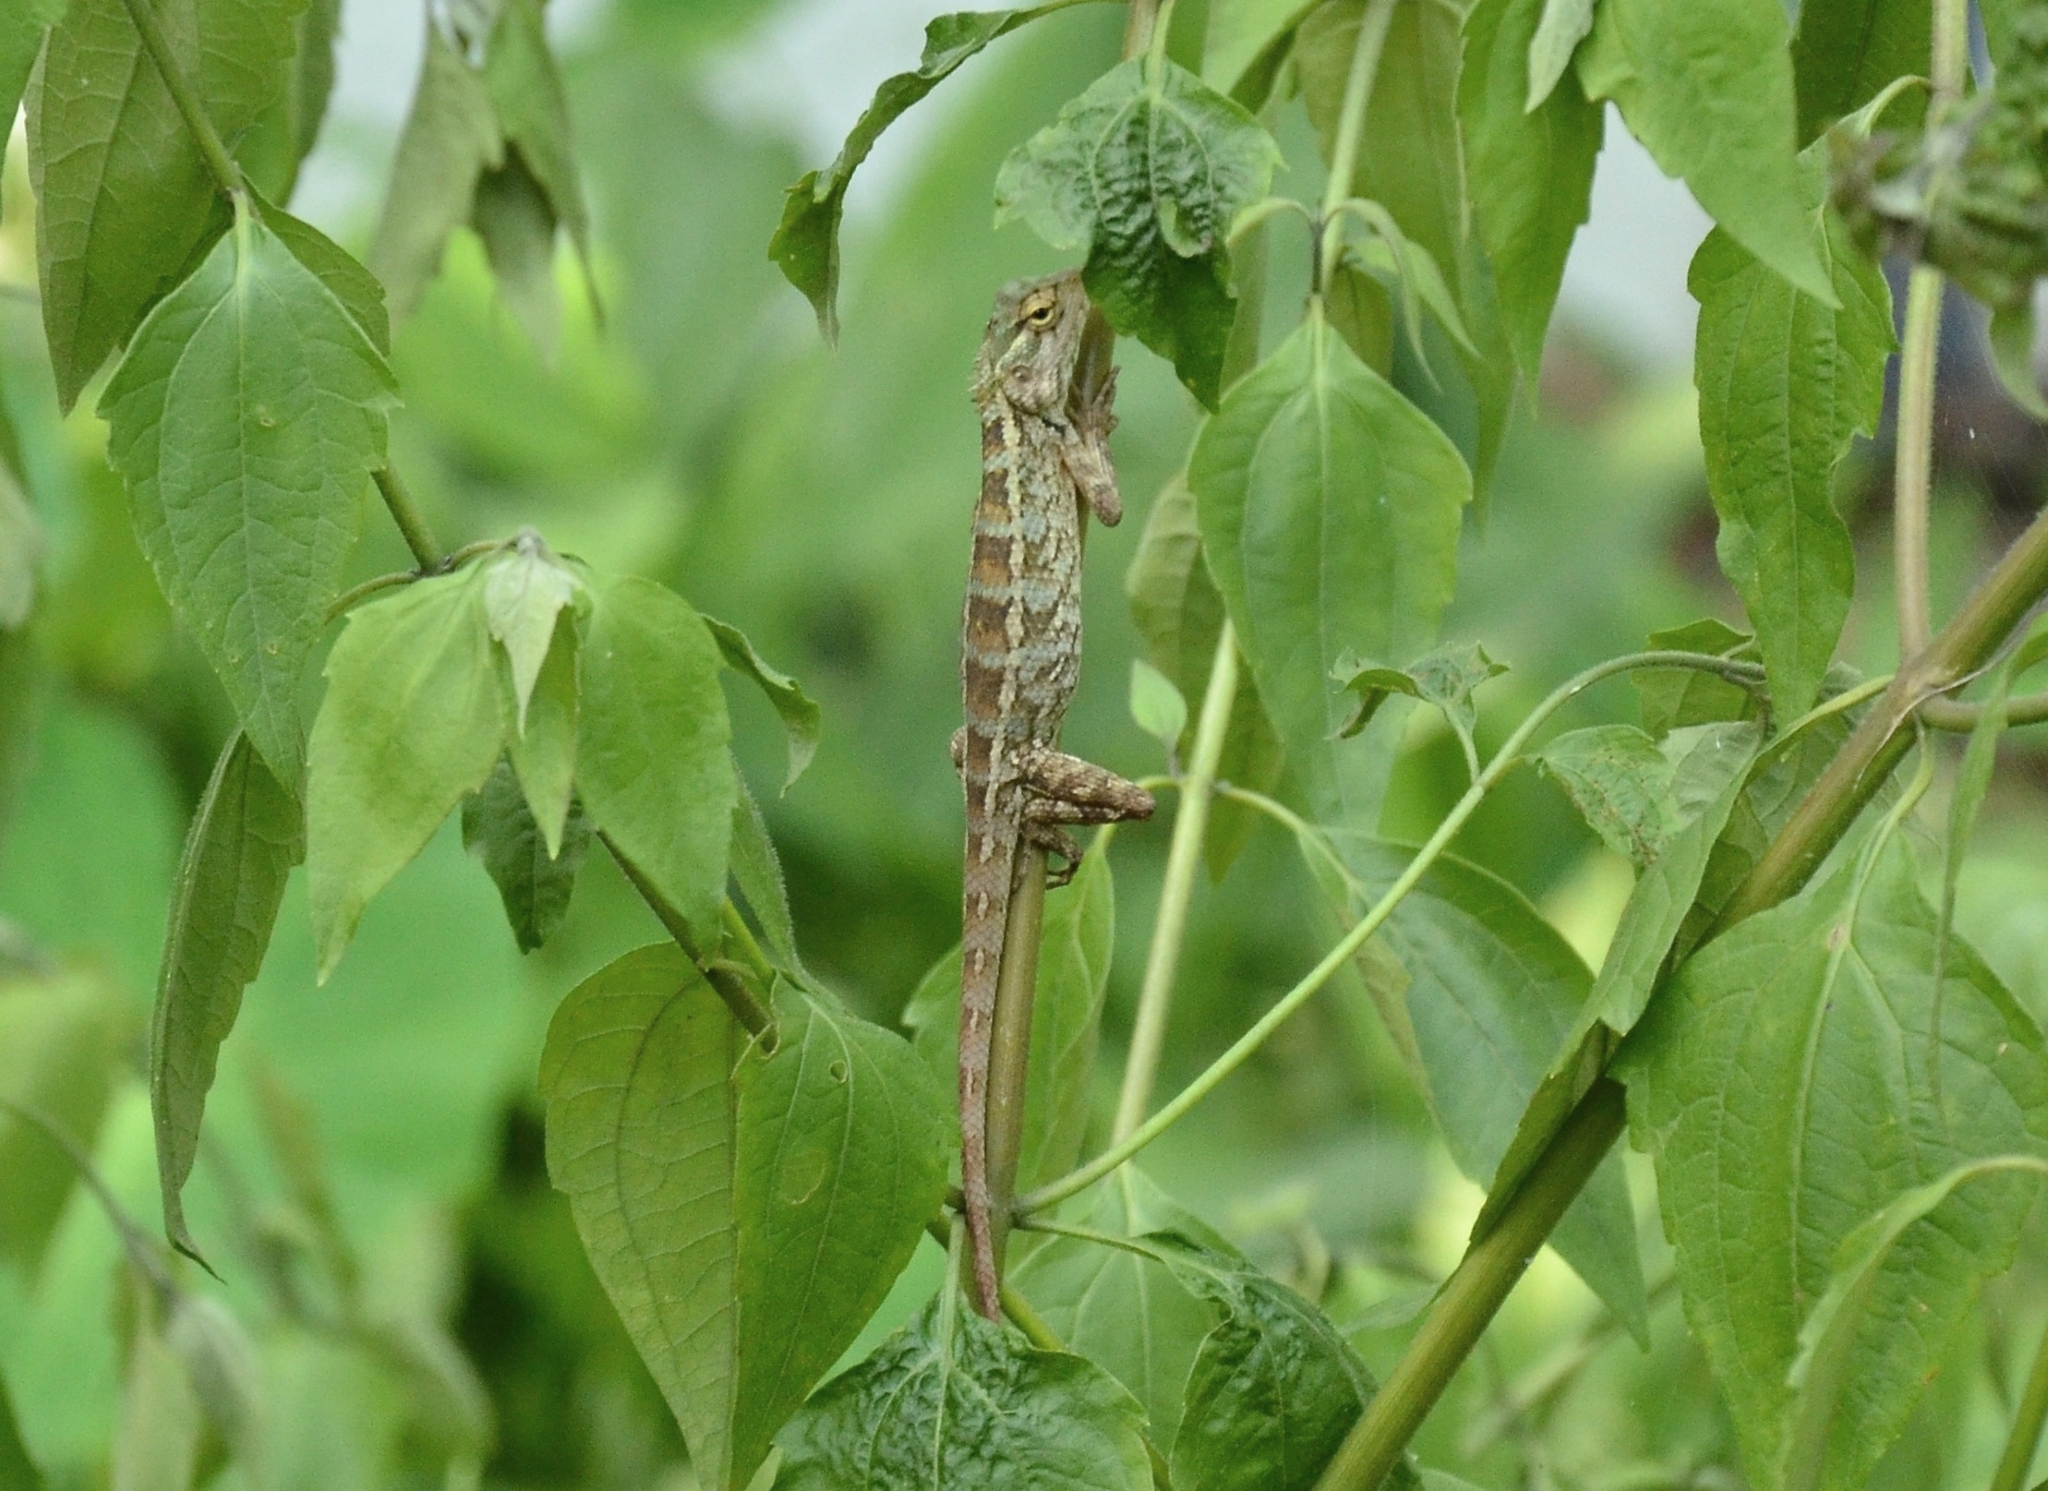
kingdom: Animalia
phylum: Chordata
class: Squamata
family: Agamidae
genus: Calotes
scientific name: Calotes versicolor
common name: Oriental garden lizard
